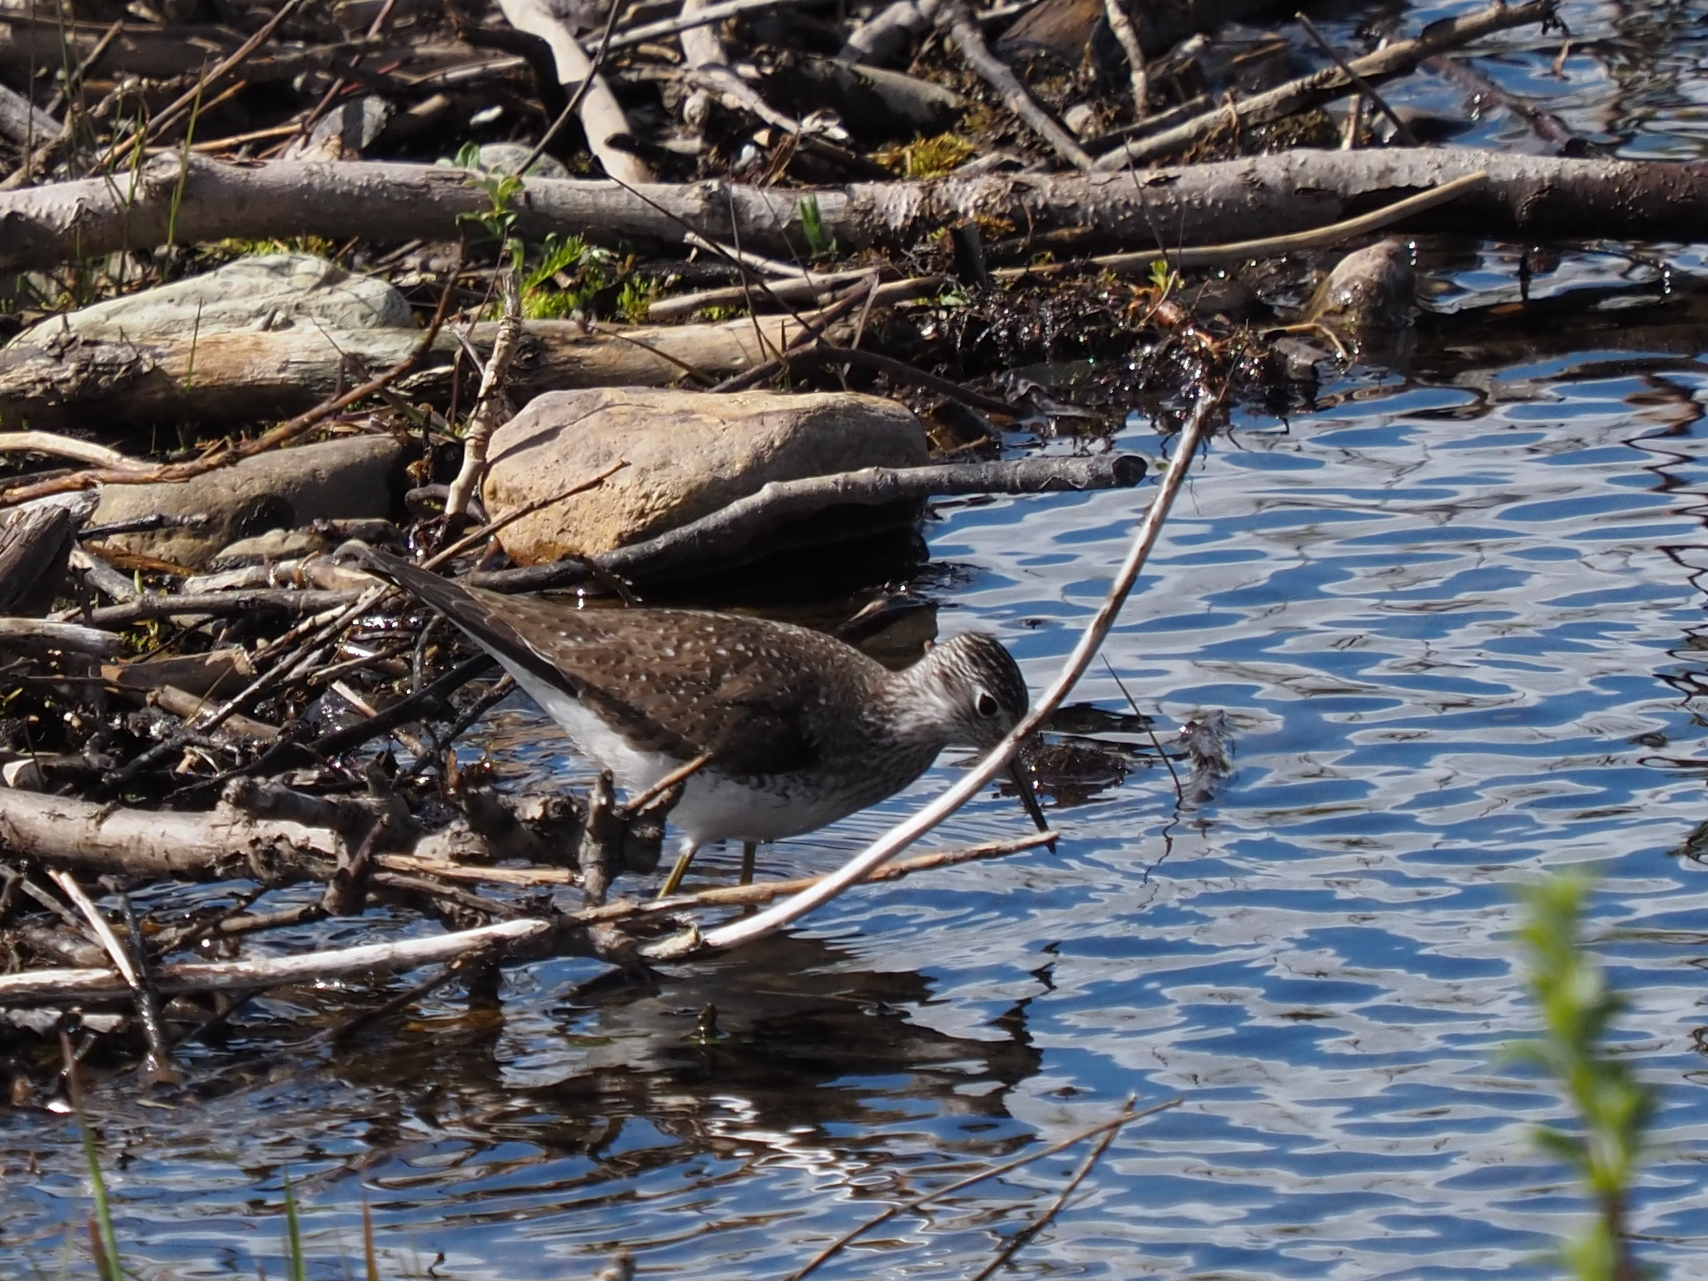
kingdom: Animalia
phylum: Chordata
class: Aves
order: Charadriiformes
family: Scolopacidae
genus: Tringa
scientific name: Tringa solitaria
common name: Solitary sandpiper
